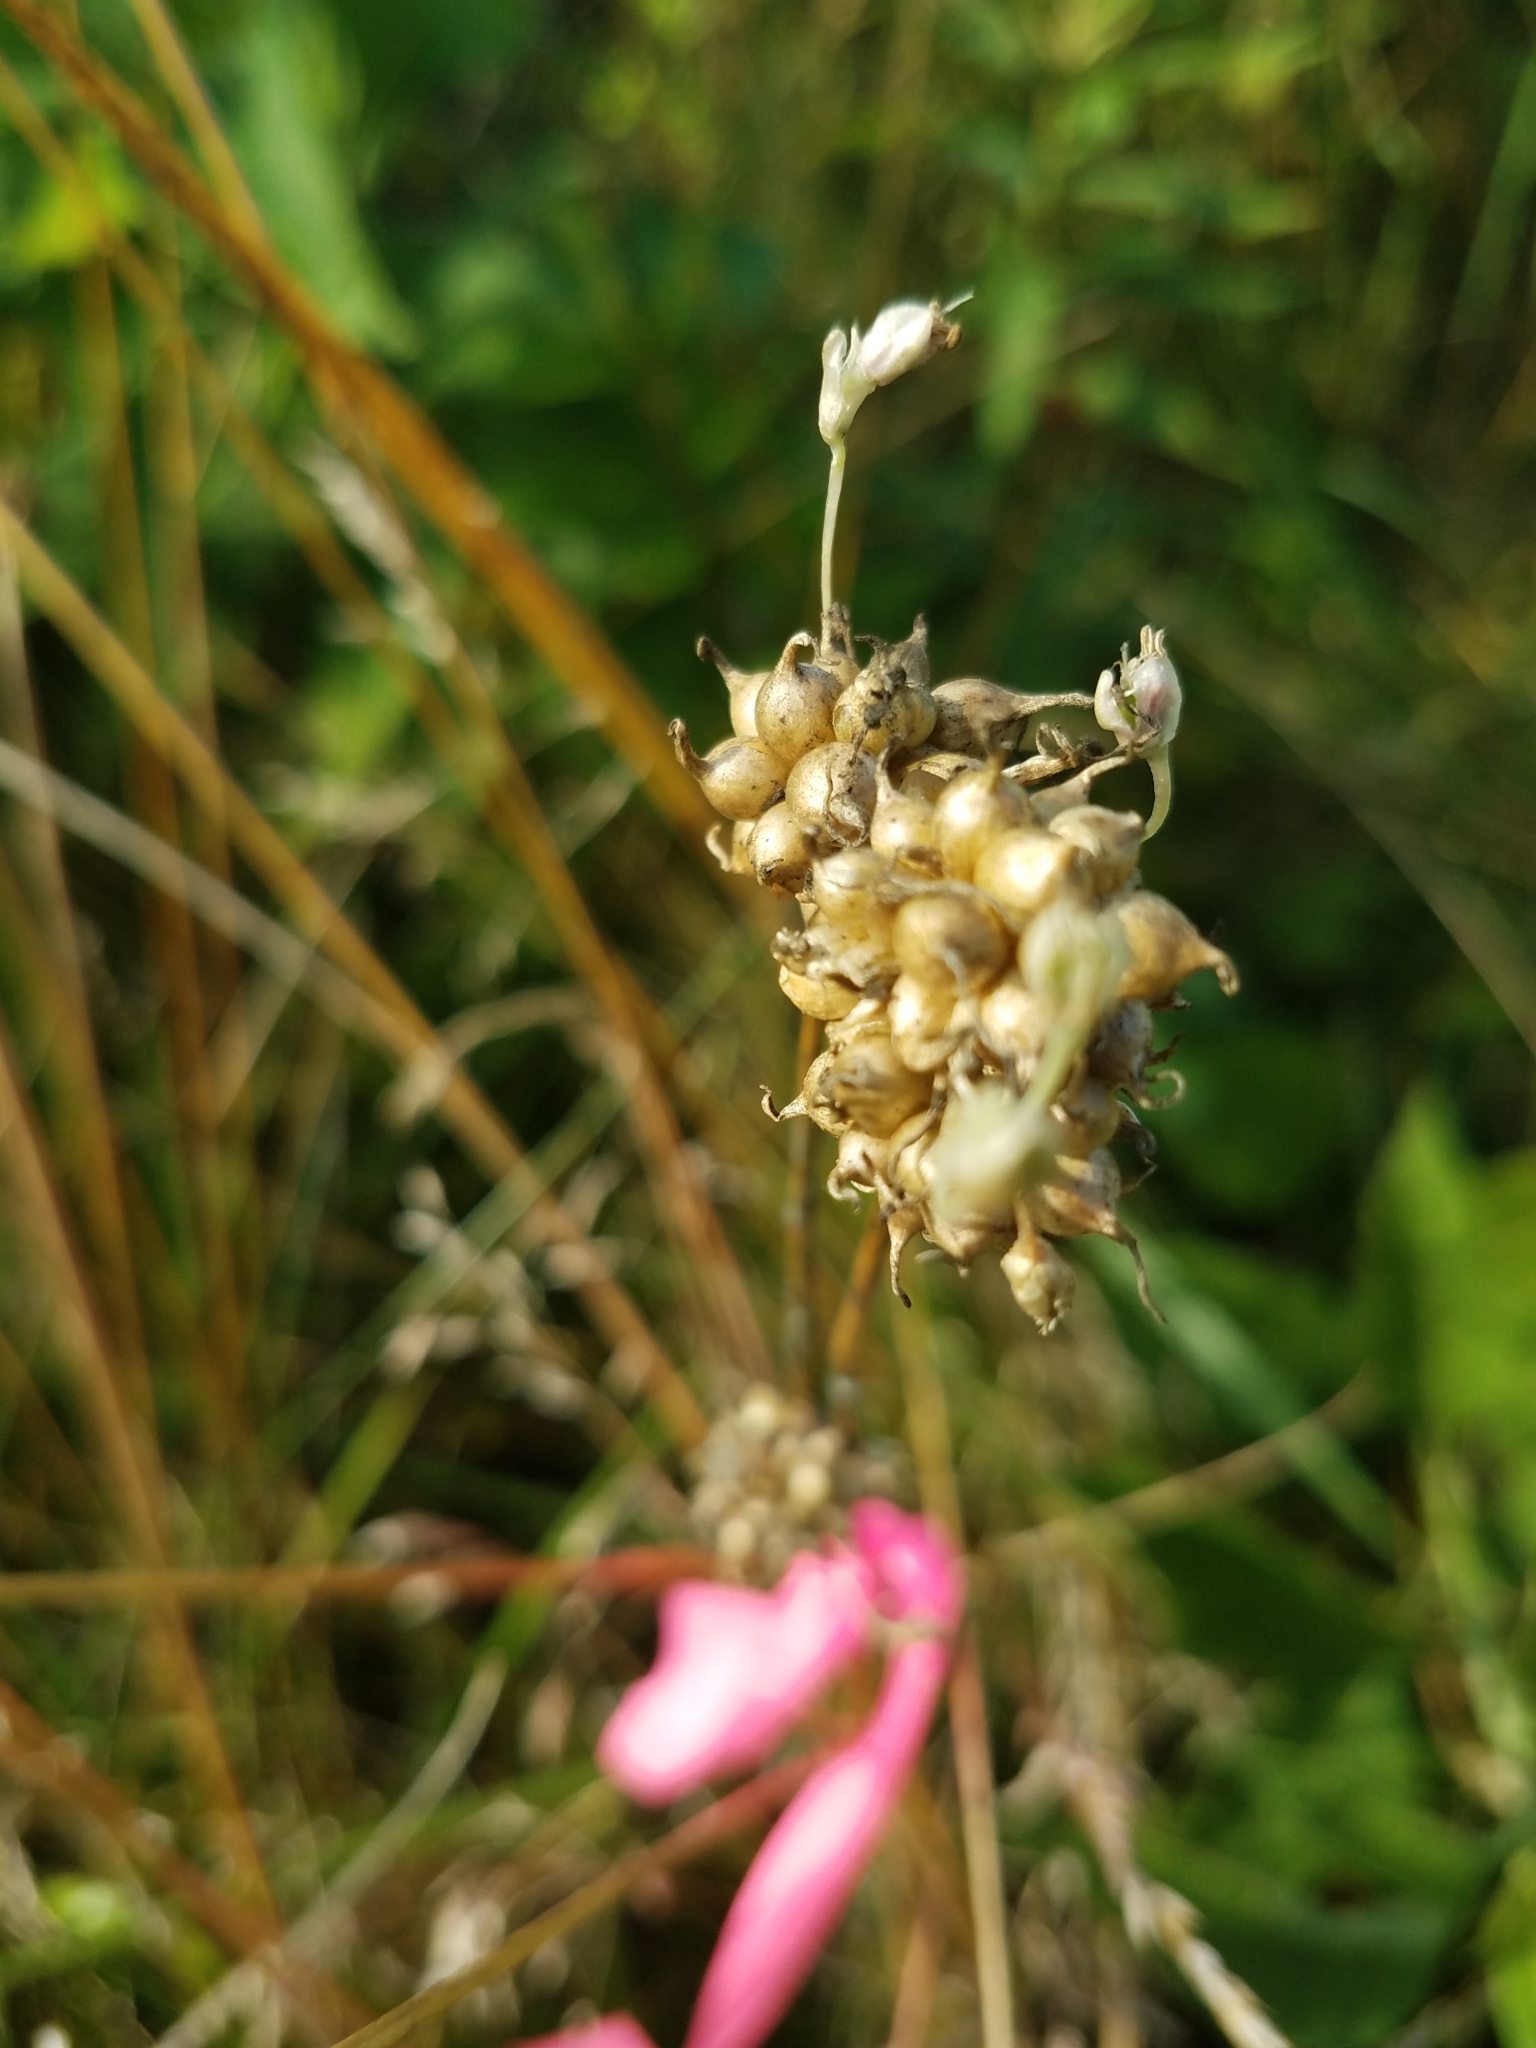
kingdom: Plantae
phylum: Tracheophyta
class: Liliopsida
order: Asparagales
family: Amaryllidaceae
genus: Allium
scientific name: Allium vineale
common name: Crow garlic
